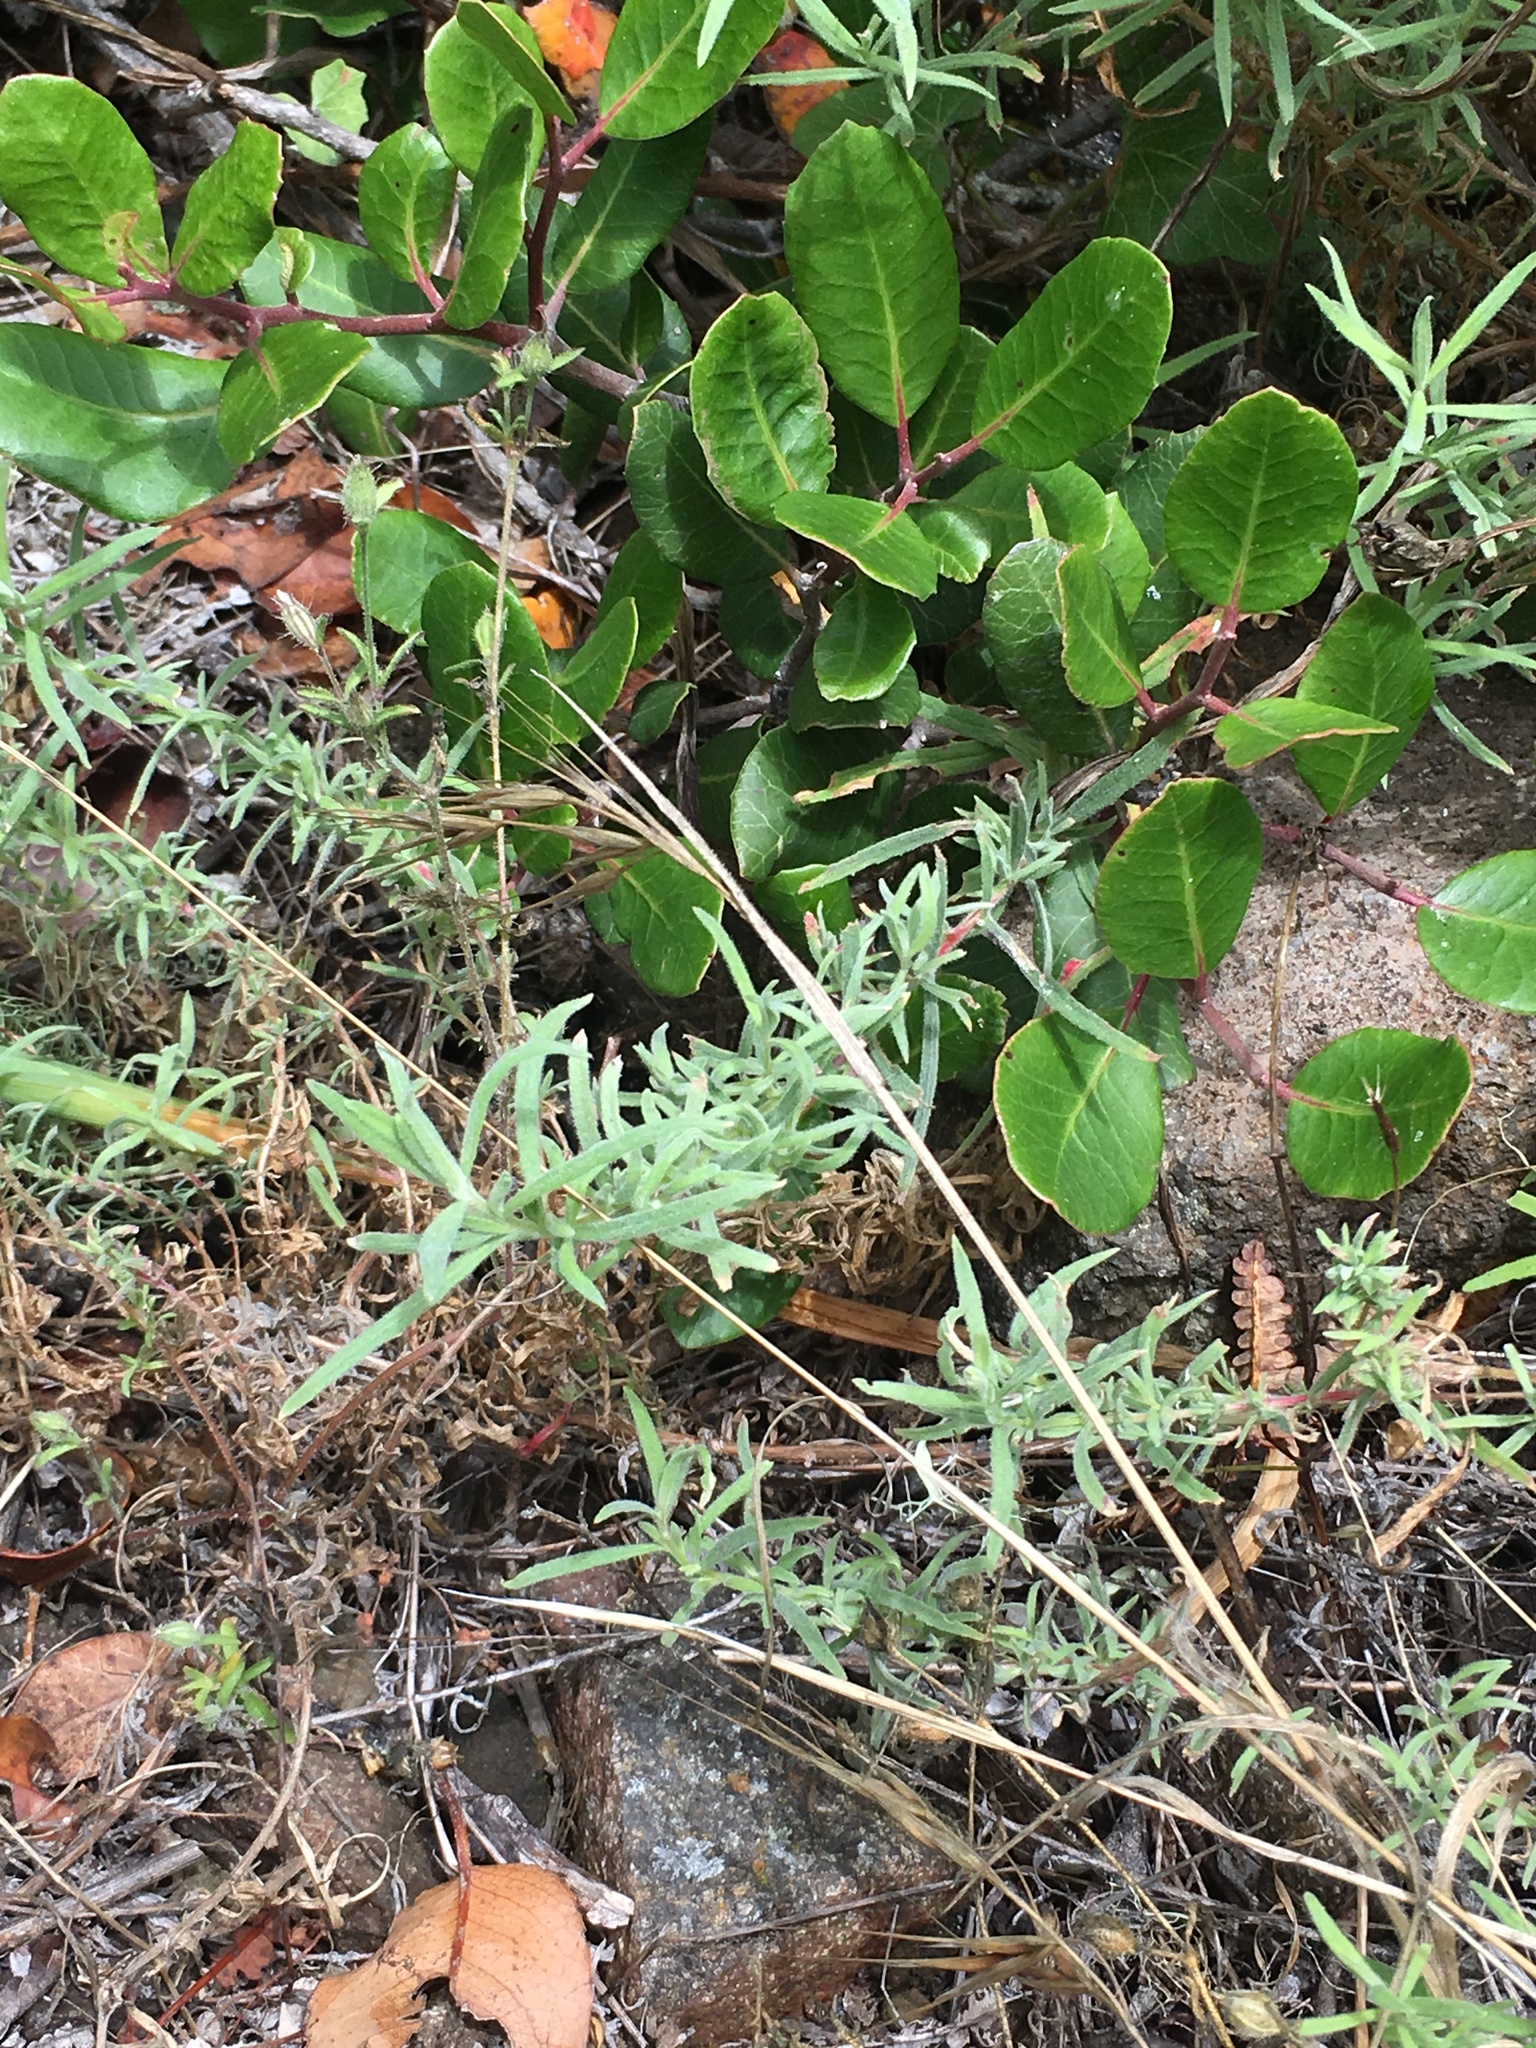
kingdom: Plantae
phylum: Tracheophyta
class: Magnoliopsida
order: Myrtales
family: Onagraceae
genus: Epilobium
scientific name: Epilobium canum
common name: California-fuchsia
